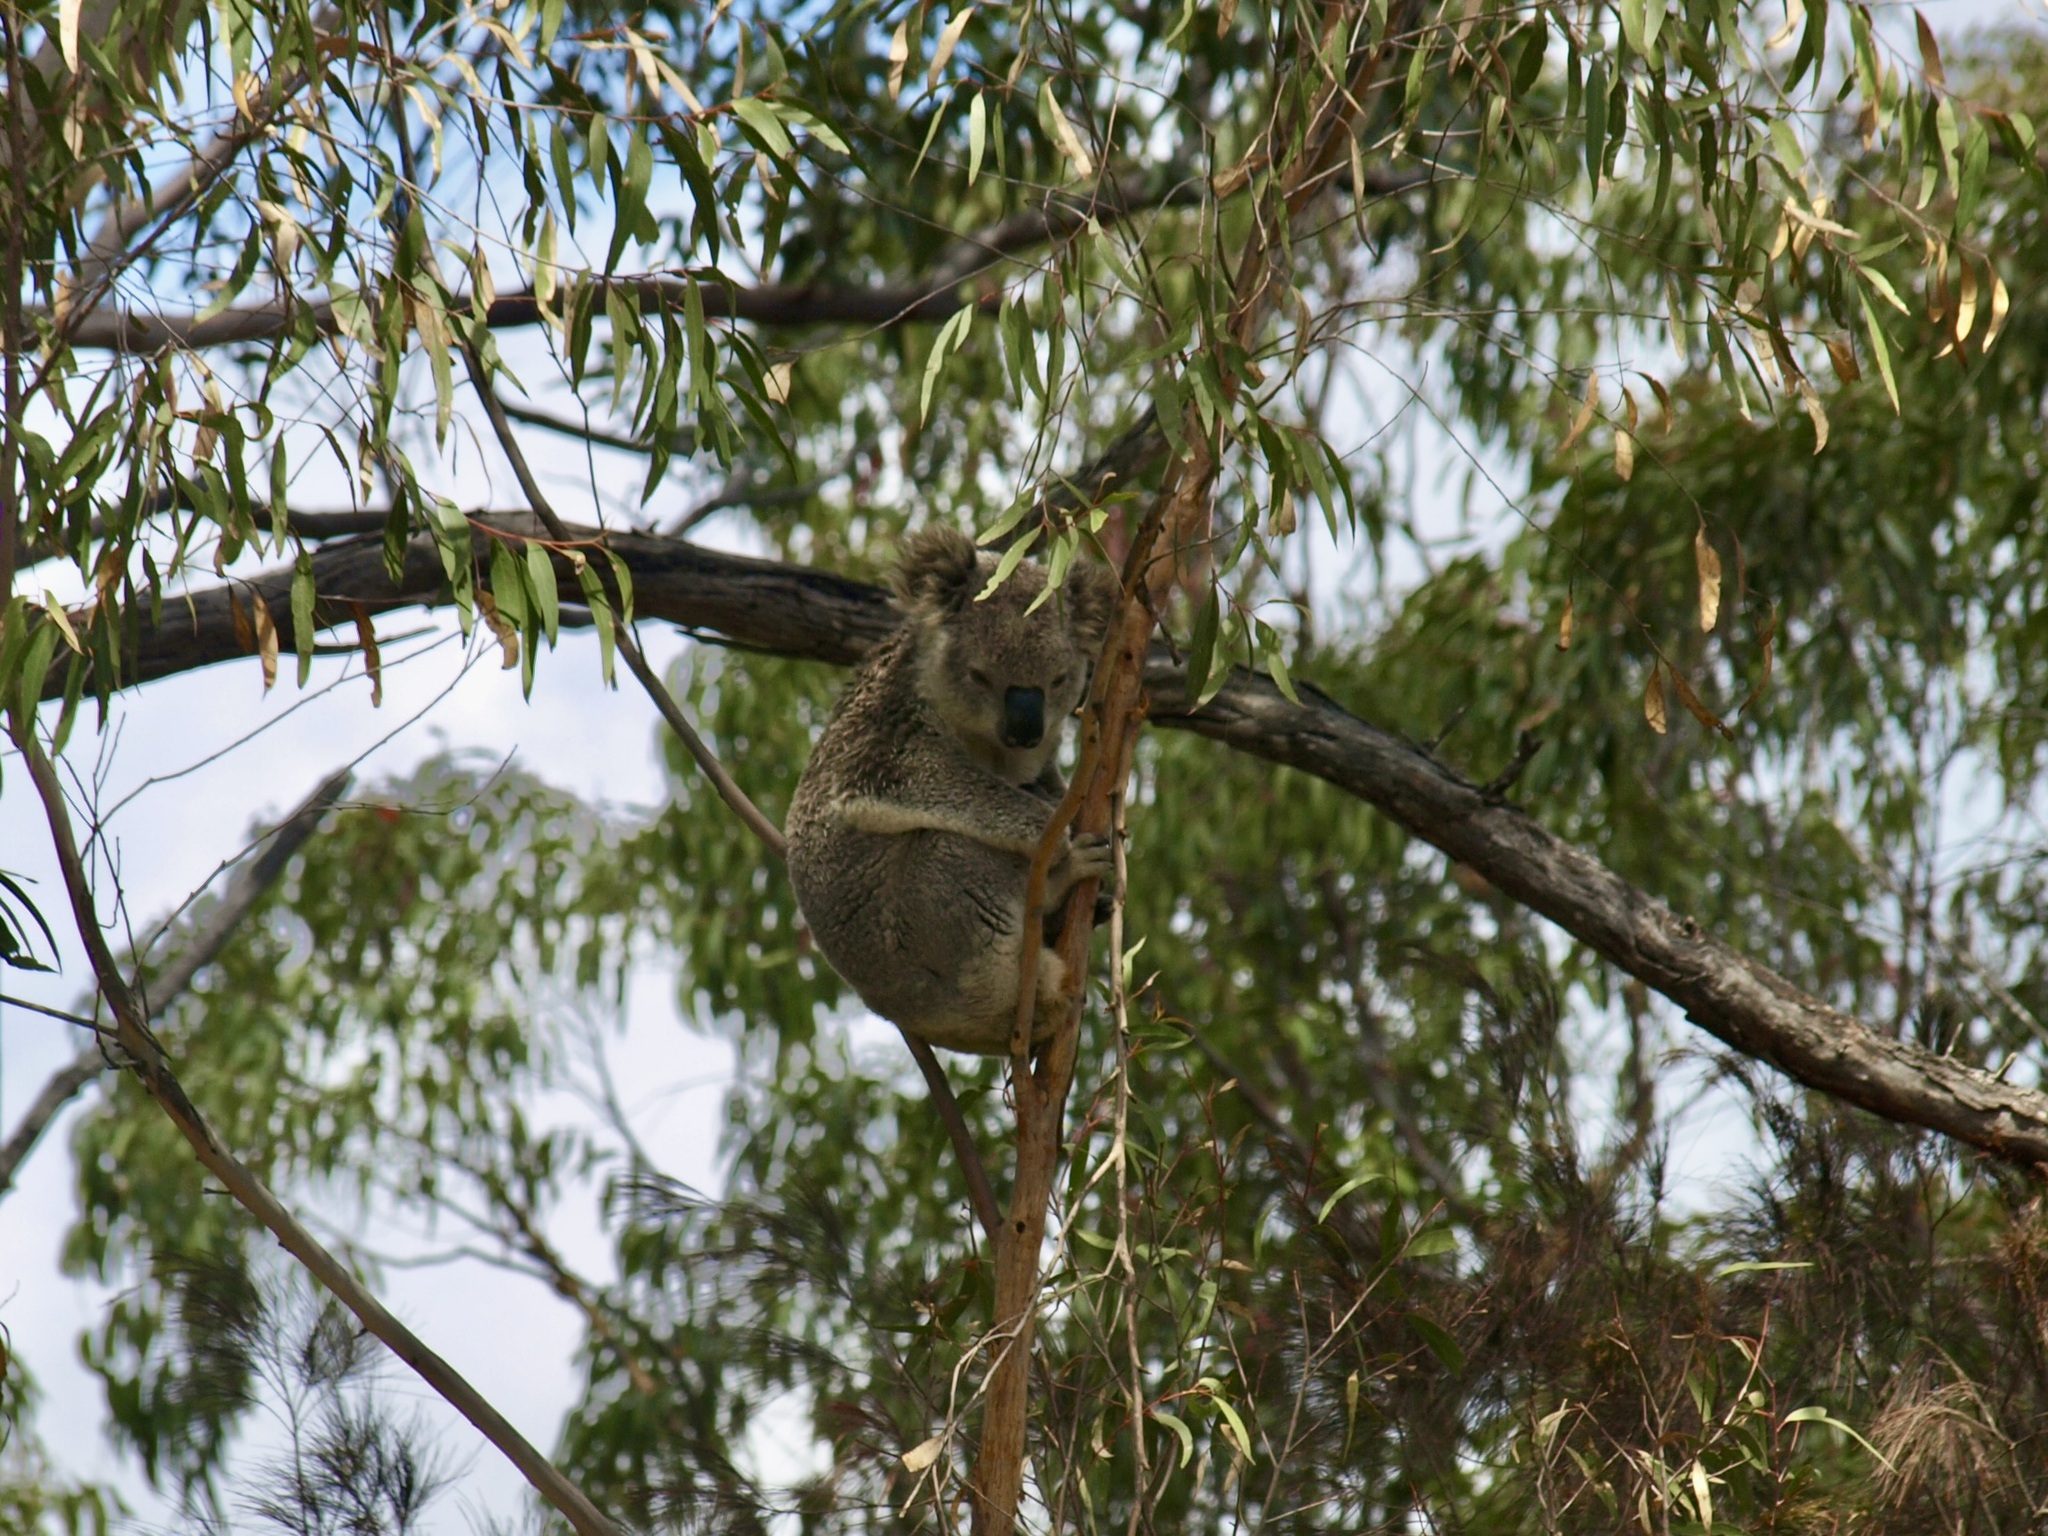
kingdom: Animalia
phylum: Chordata
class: Mammalia
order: Diprotodontia
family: Phascolarctidae
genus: Phascolarctos
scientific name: Phascolarctos cinereus
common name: Koala
